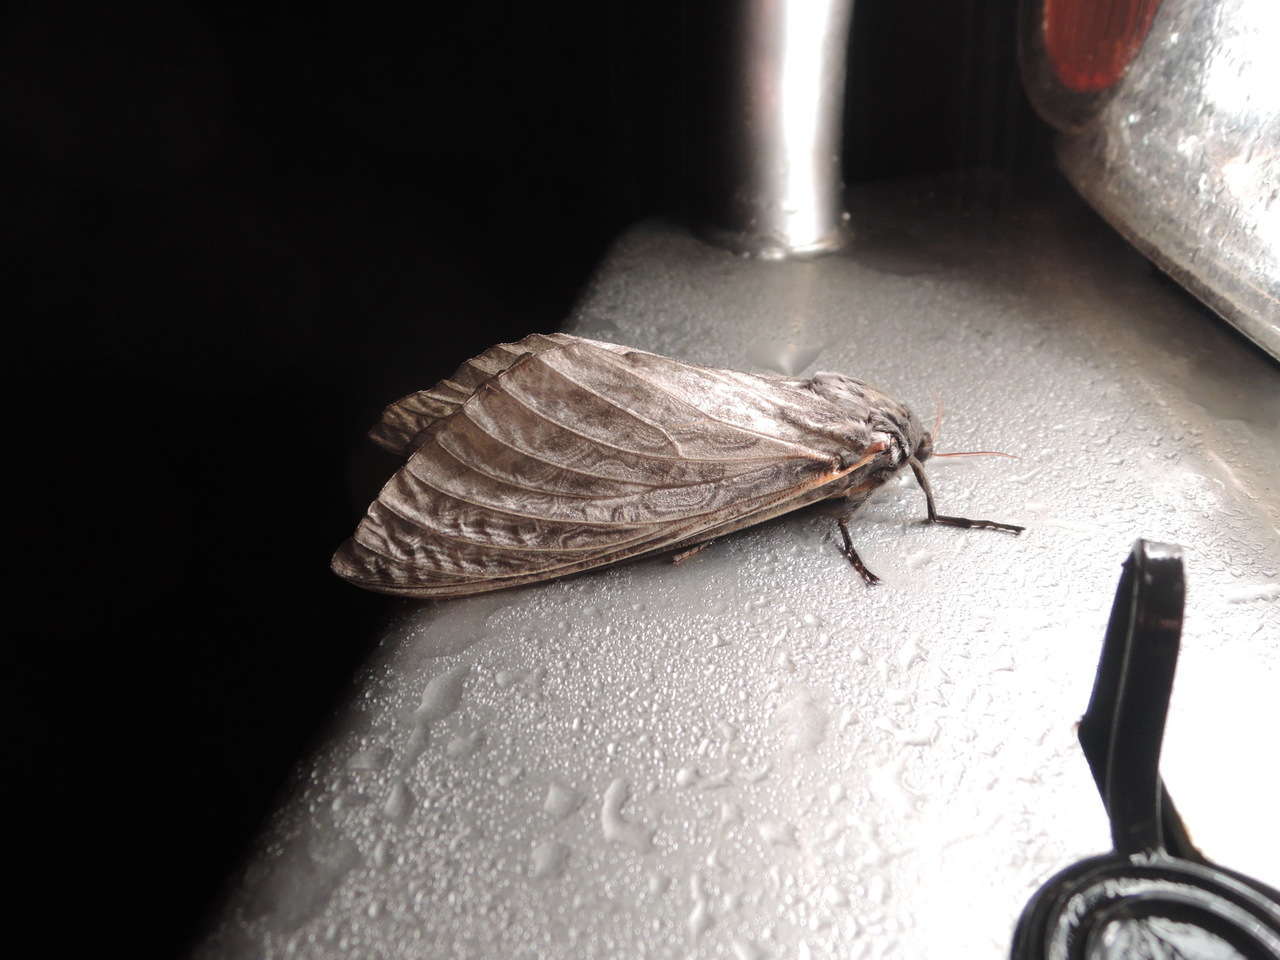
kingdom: Animalia
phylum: Arthropoda
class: Insecta
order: Lepidoptera
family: Hepialidae
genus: Abantiades
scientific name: Abantiades atripalpis
